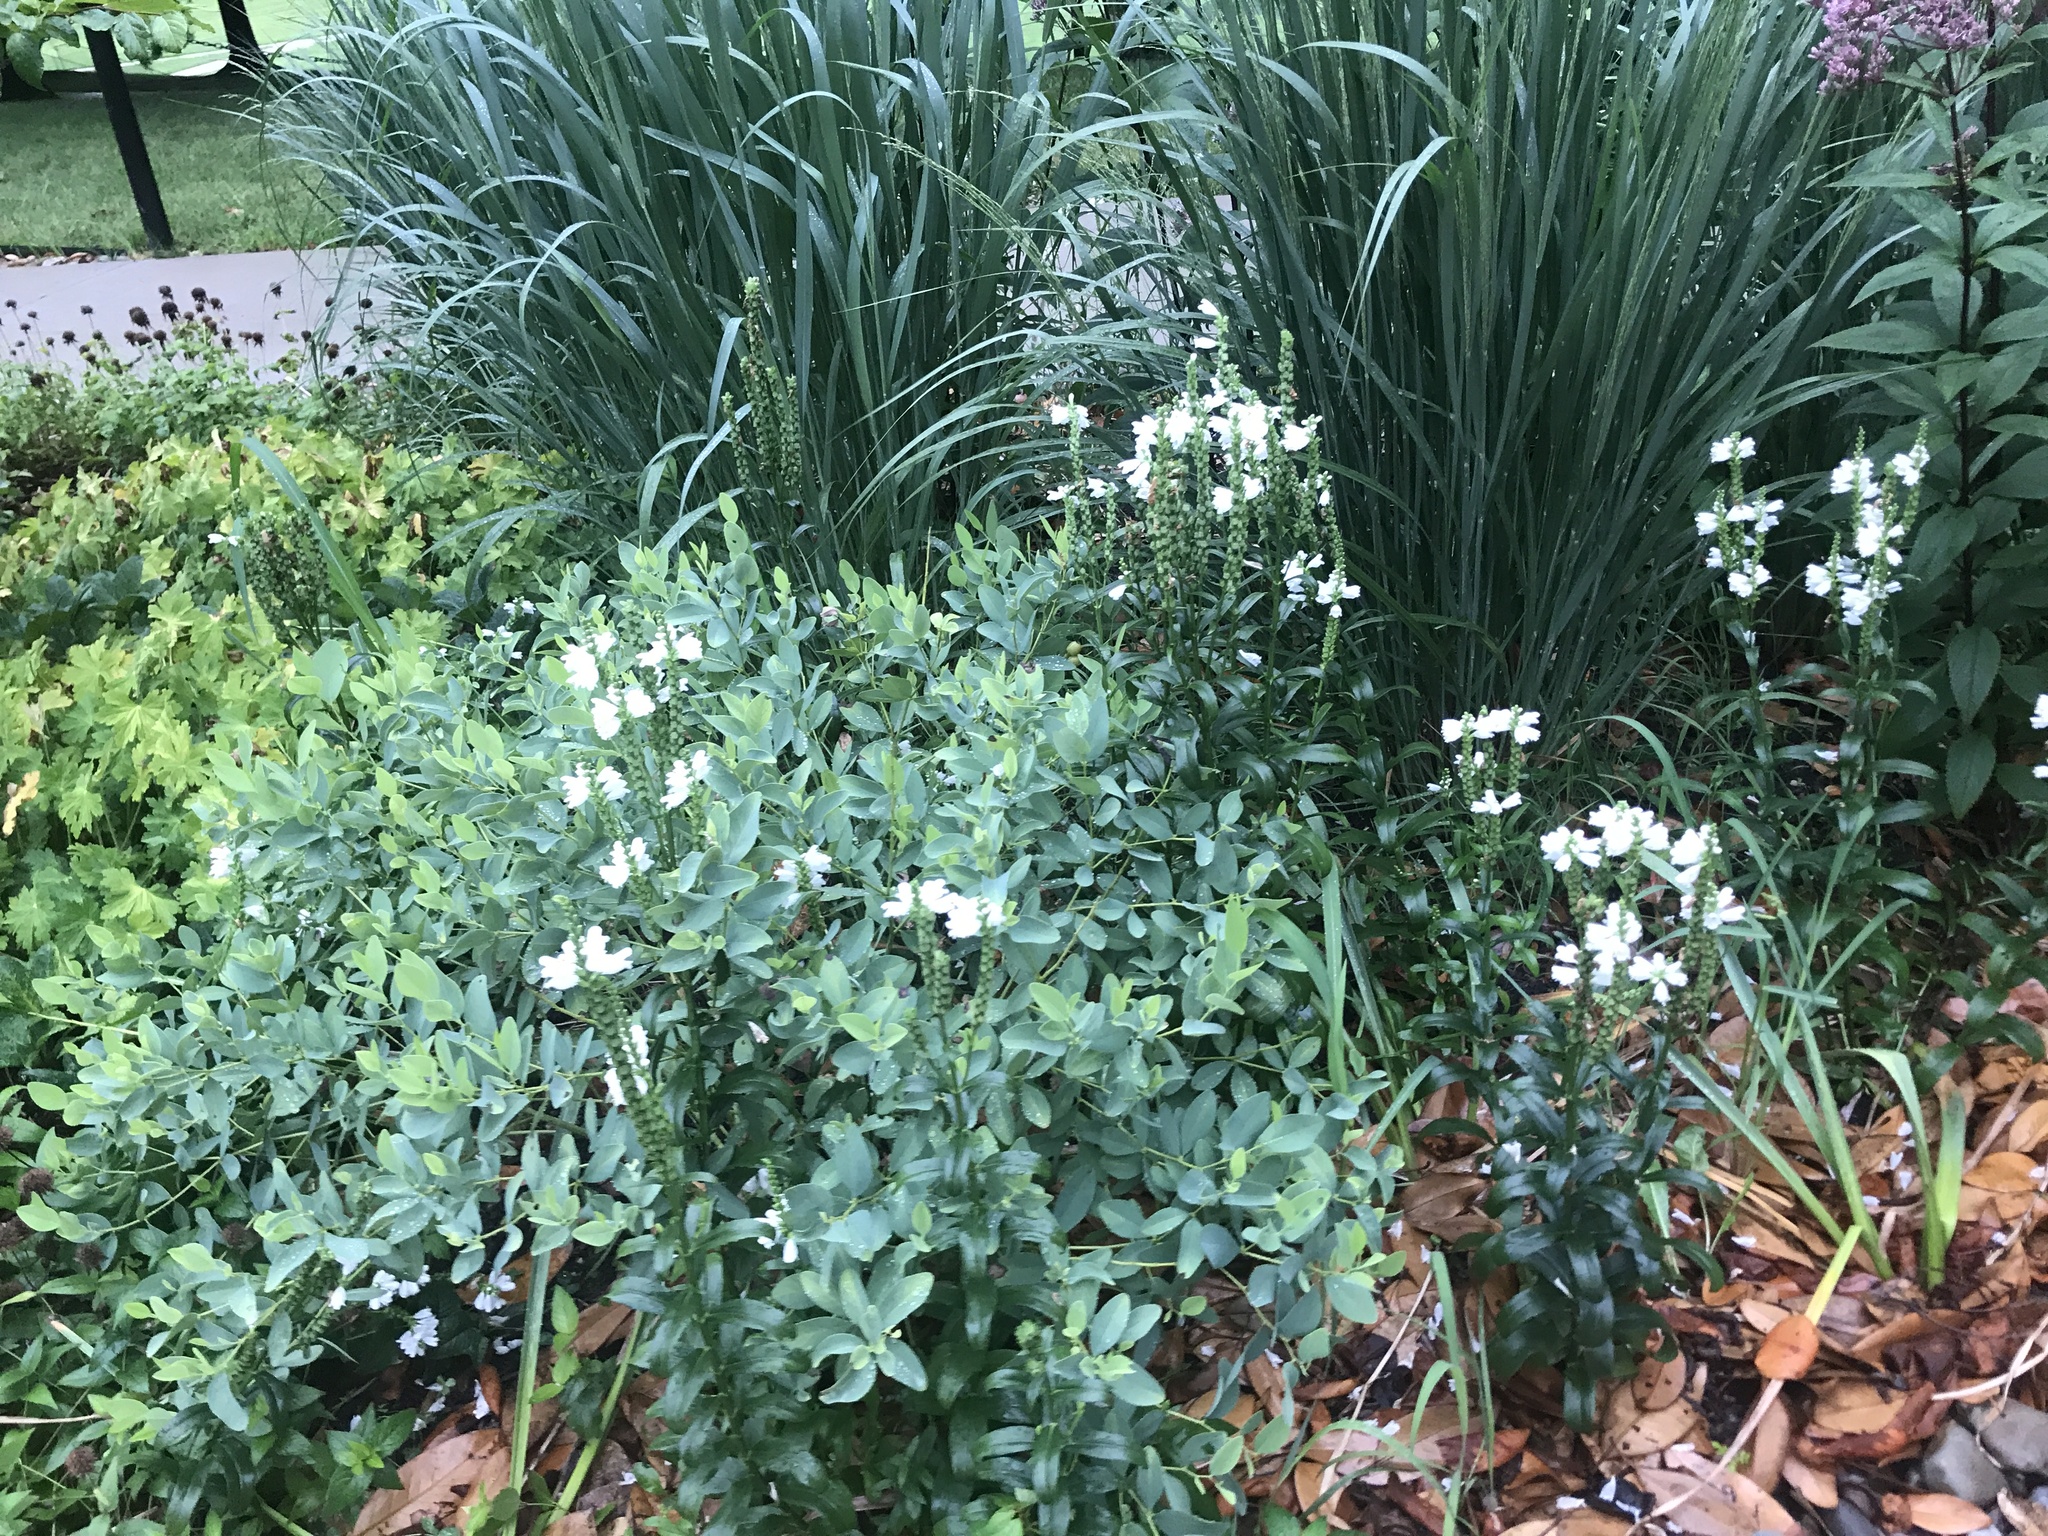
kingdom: Plantae
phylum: Tracheophyta
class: Magnoliopsida
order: Lamiales
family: Lamiaceae
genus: Physostegia
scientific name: Physostegia virginiana
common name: Obedient-plant
